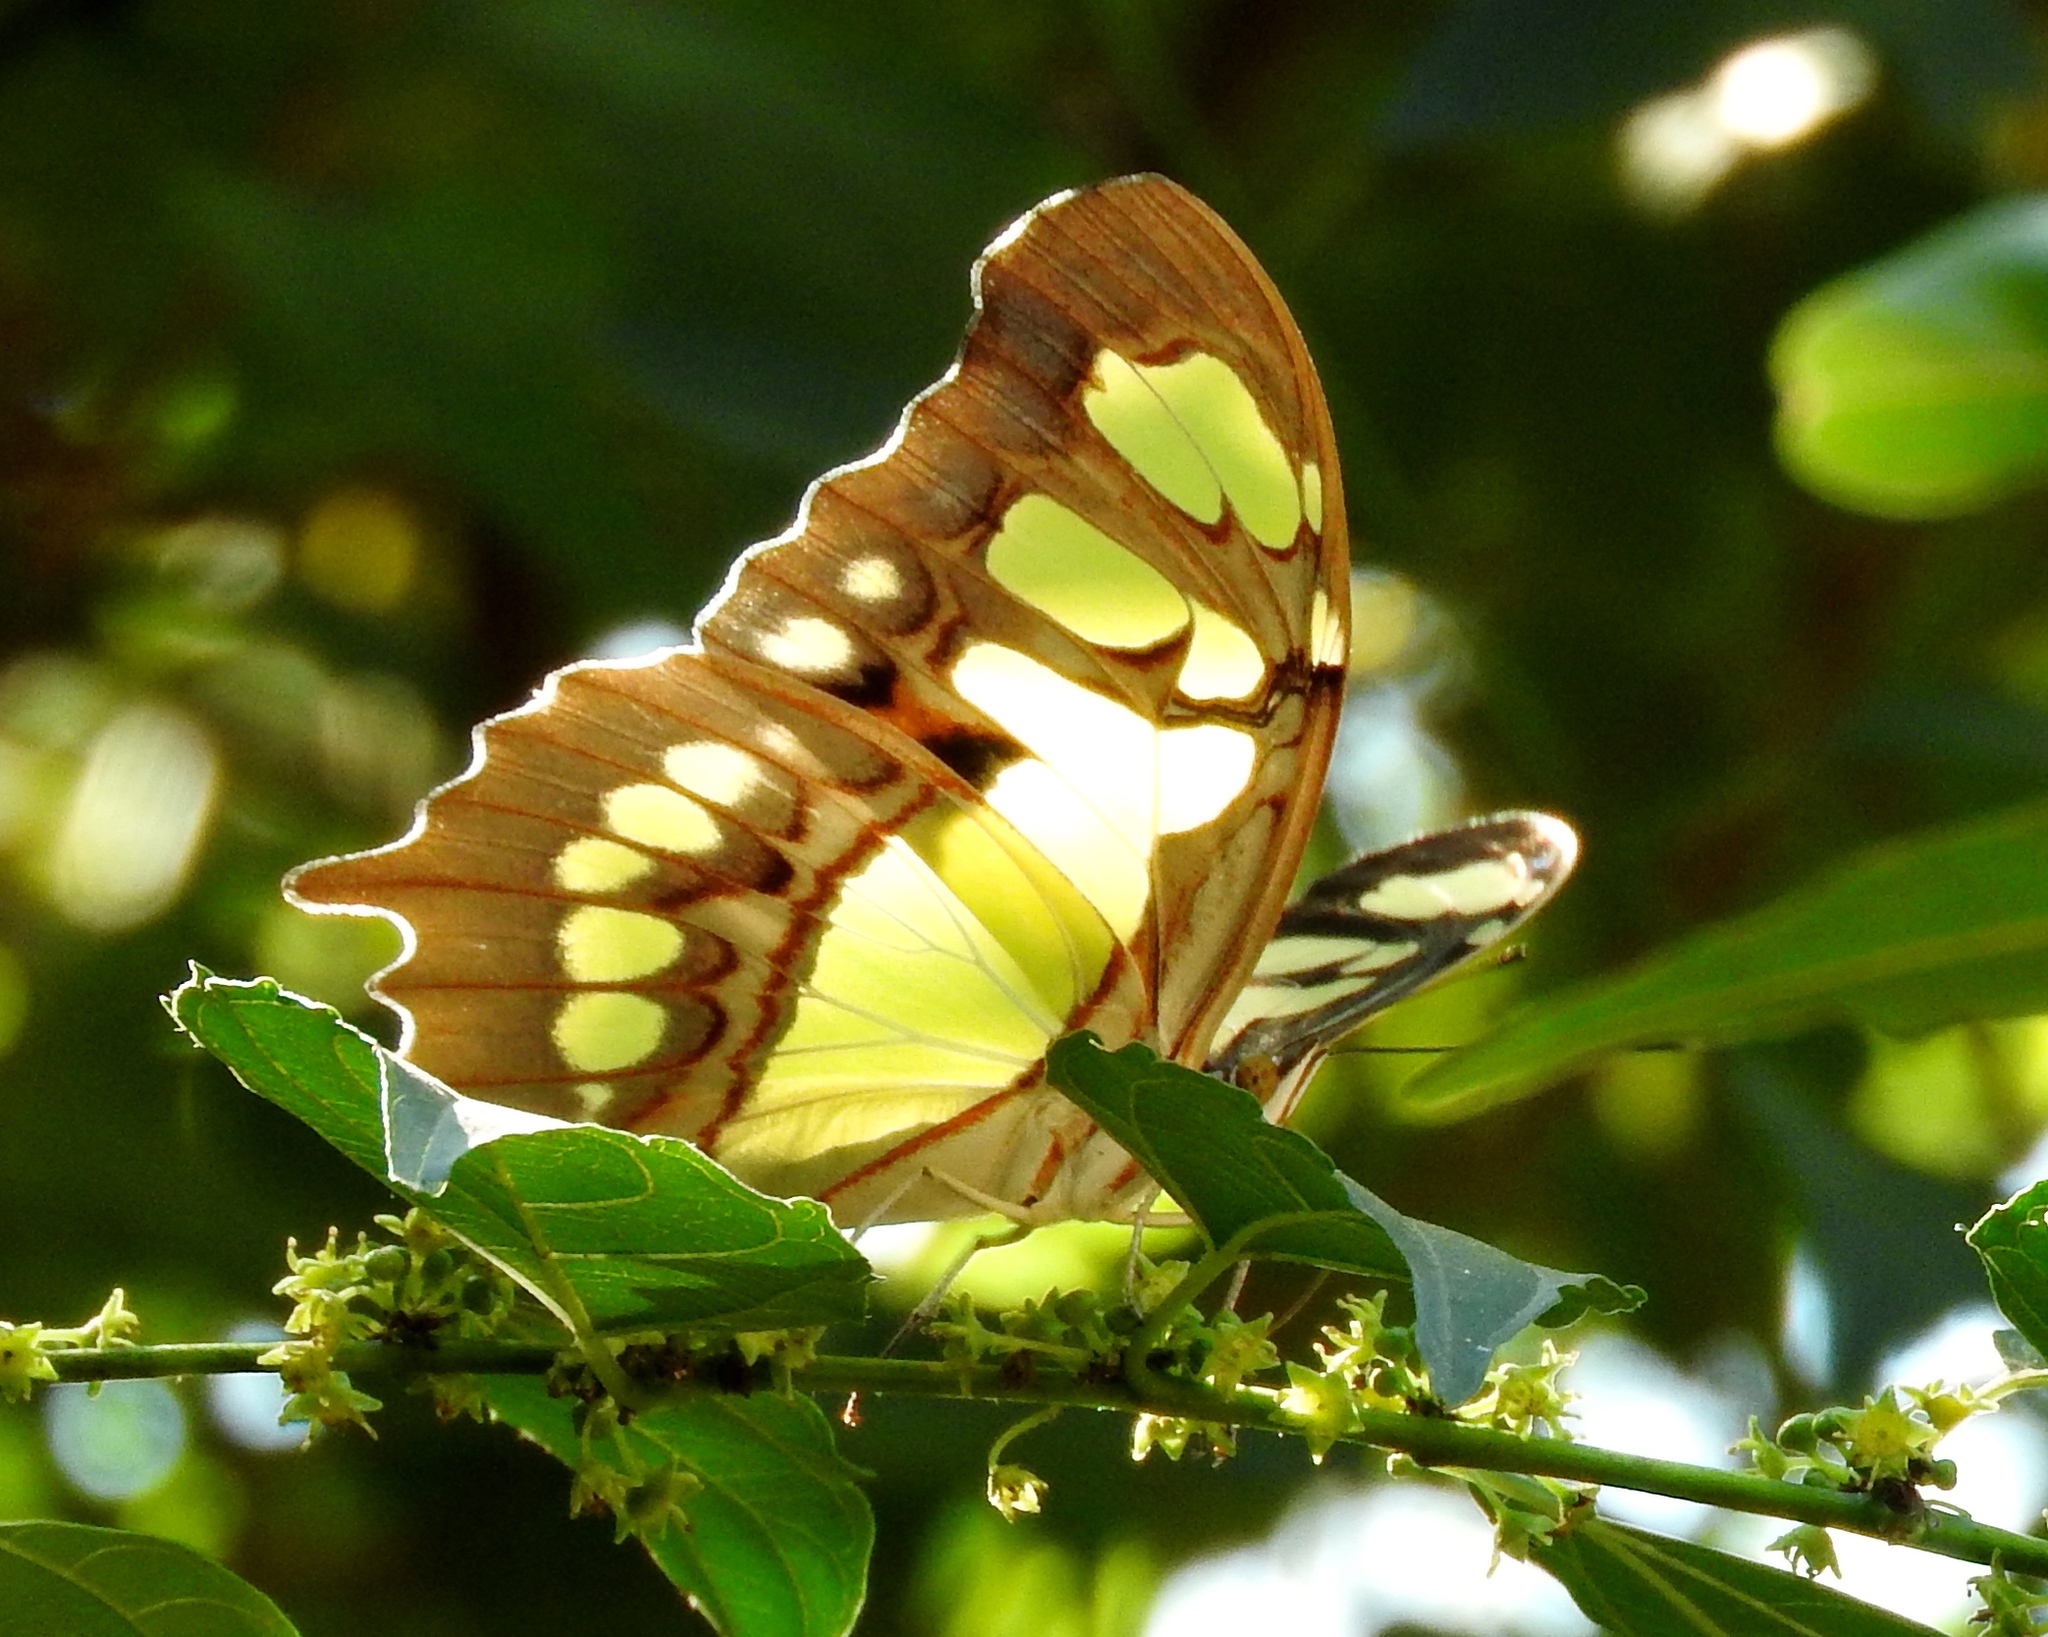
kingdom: Animalia
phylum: Arthropoda
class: Insecta
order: Lepidoptera
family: Nymphalidae
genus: Siproeta
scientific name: Siproeta stelenes
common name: Malachite
